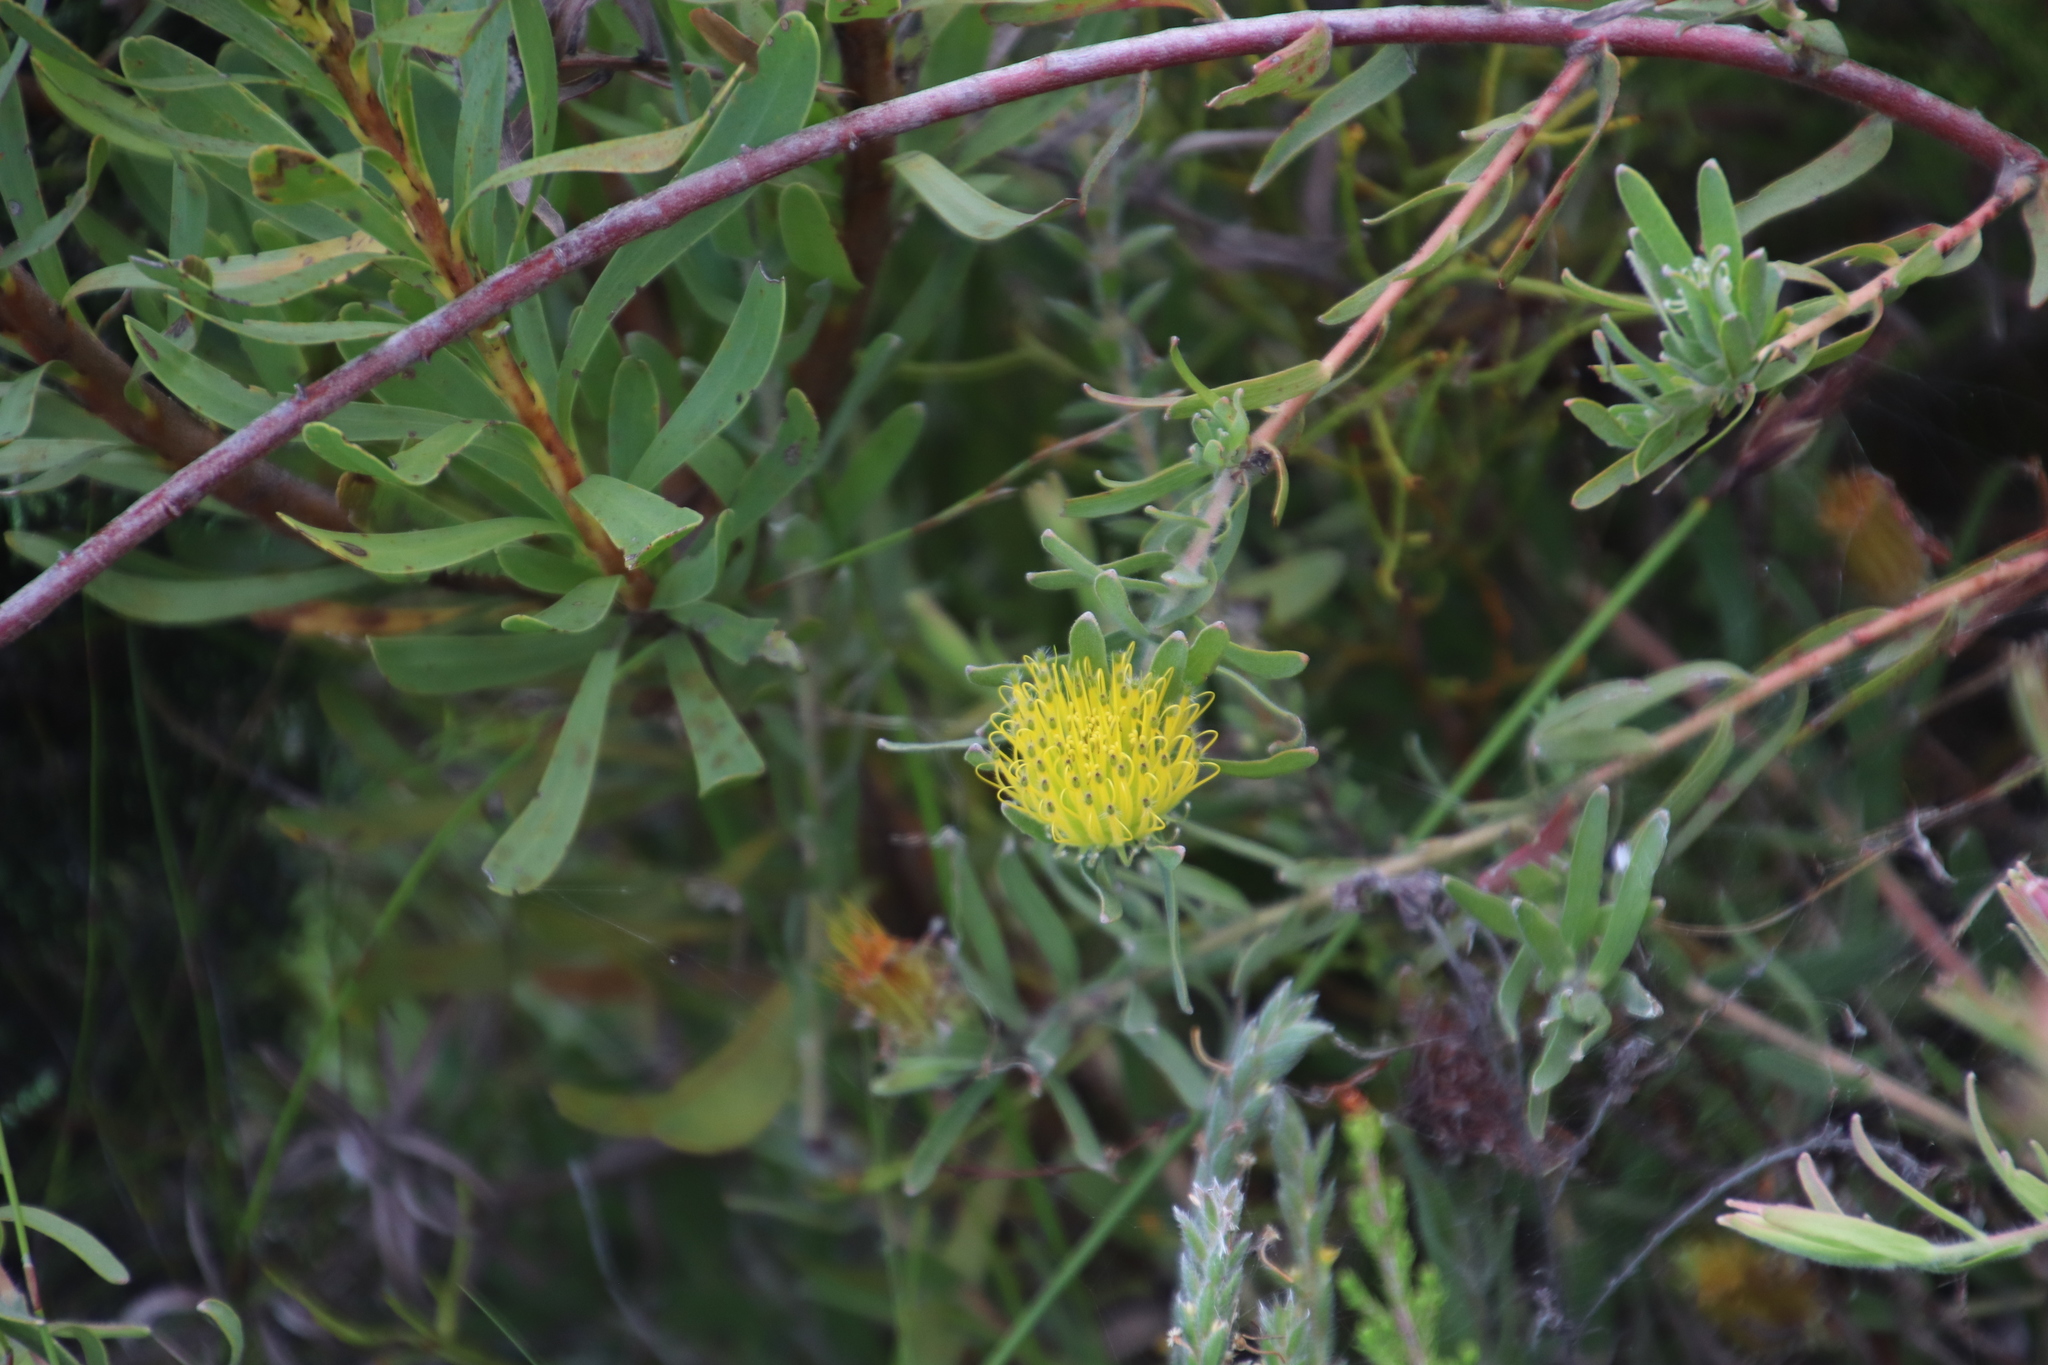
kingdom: Plantae
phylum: Tracheophyta
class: Magnoliopsida
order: Proteales
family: Proteaceae
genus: Leucospermum
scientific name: Leucospermum gracile
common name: Hermanus pincushion
